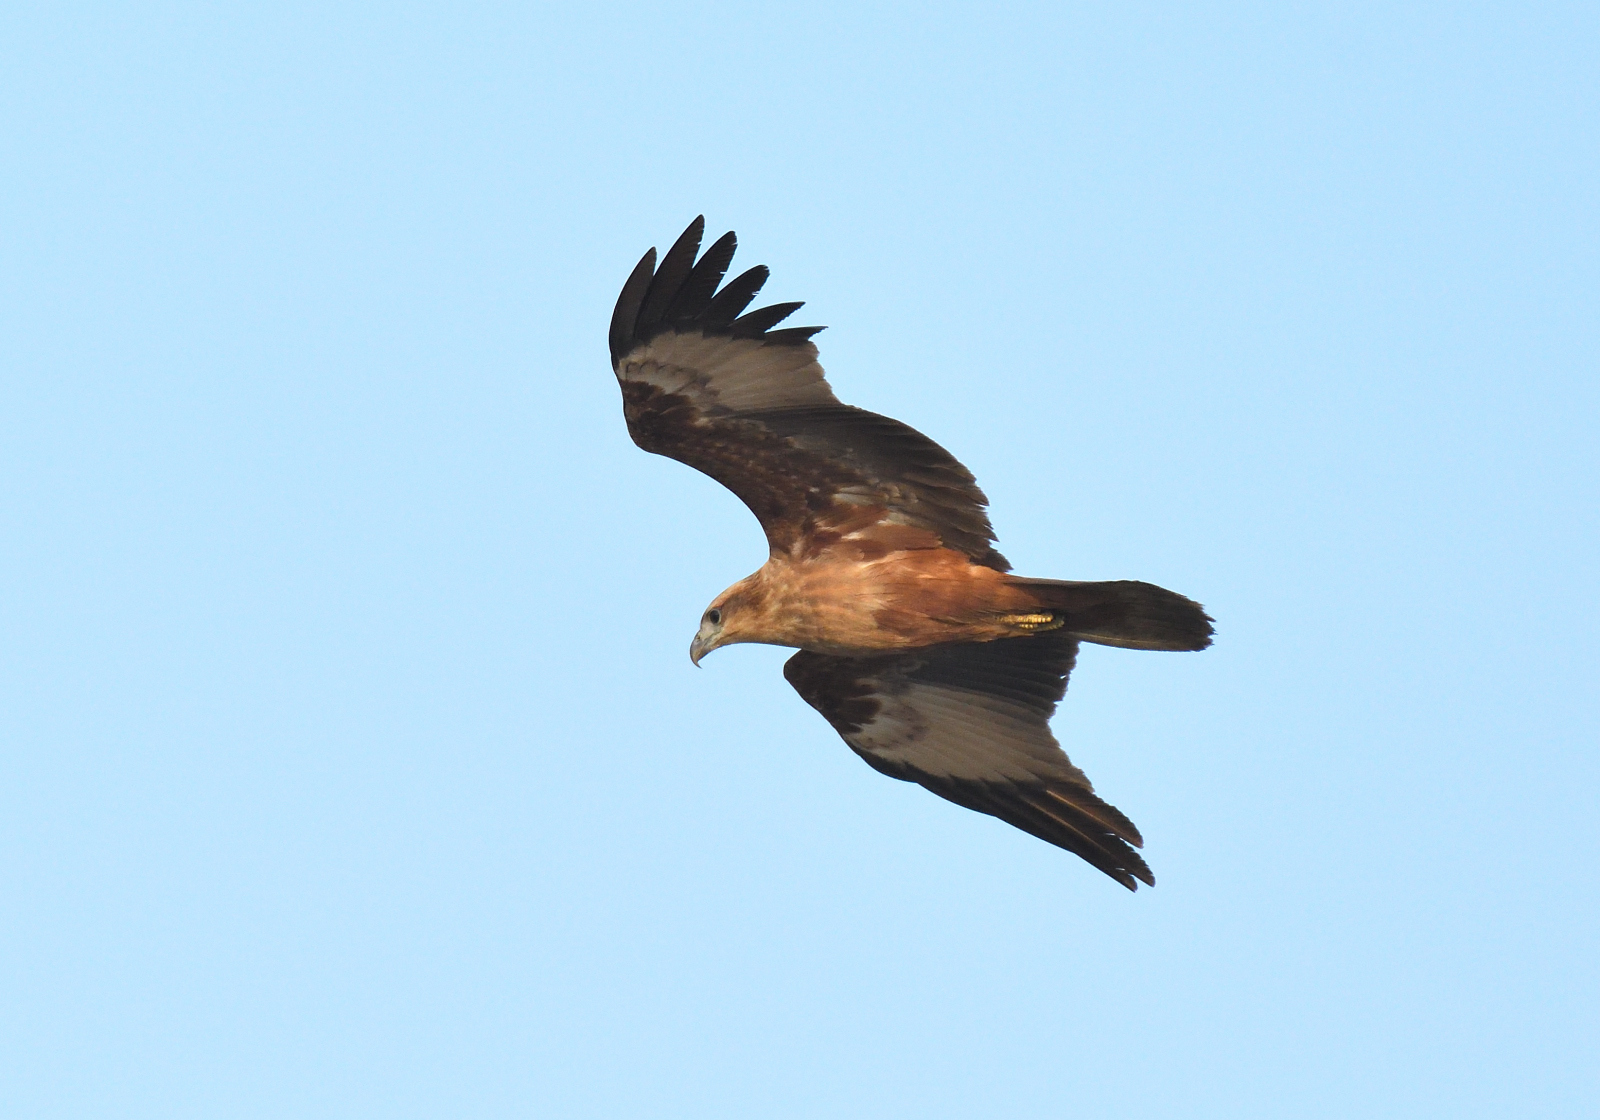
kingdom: Animalia
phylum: Chordata
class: Aves
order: Accipitriformes
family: Accipitridae
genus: Haliastur
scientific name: Haliastur indus
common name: Brahminy kite
